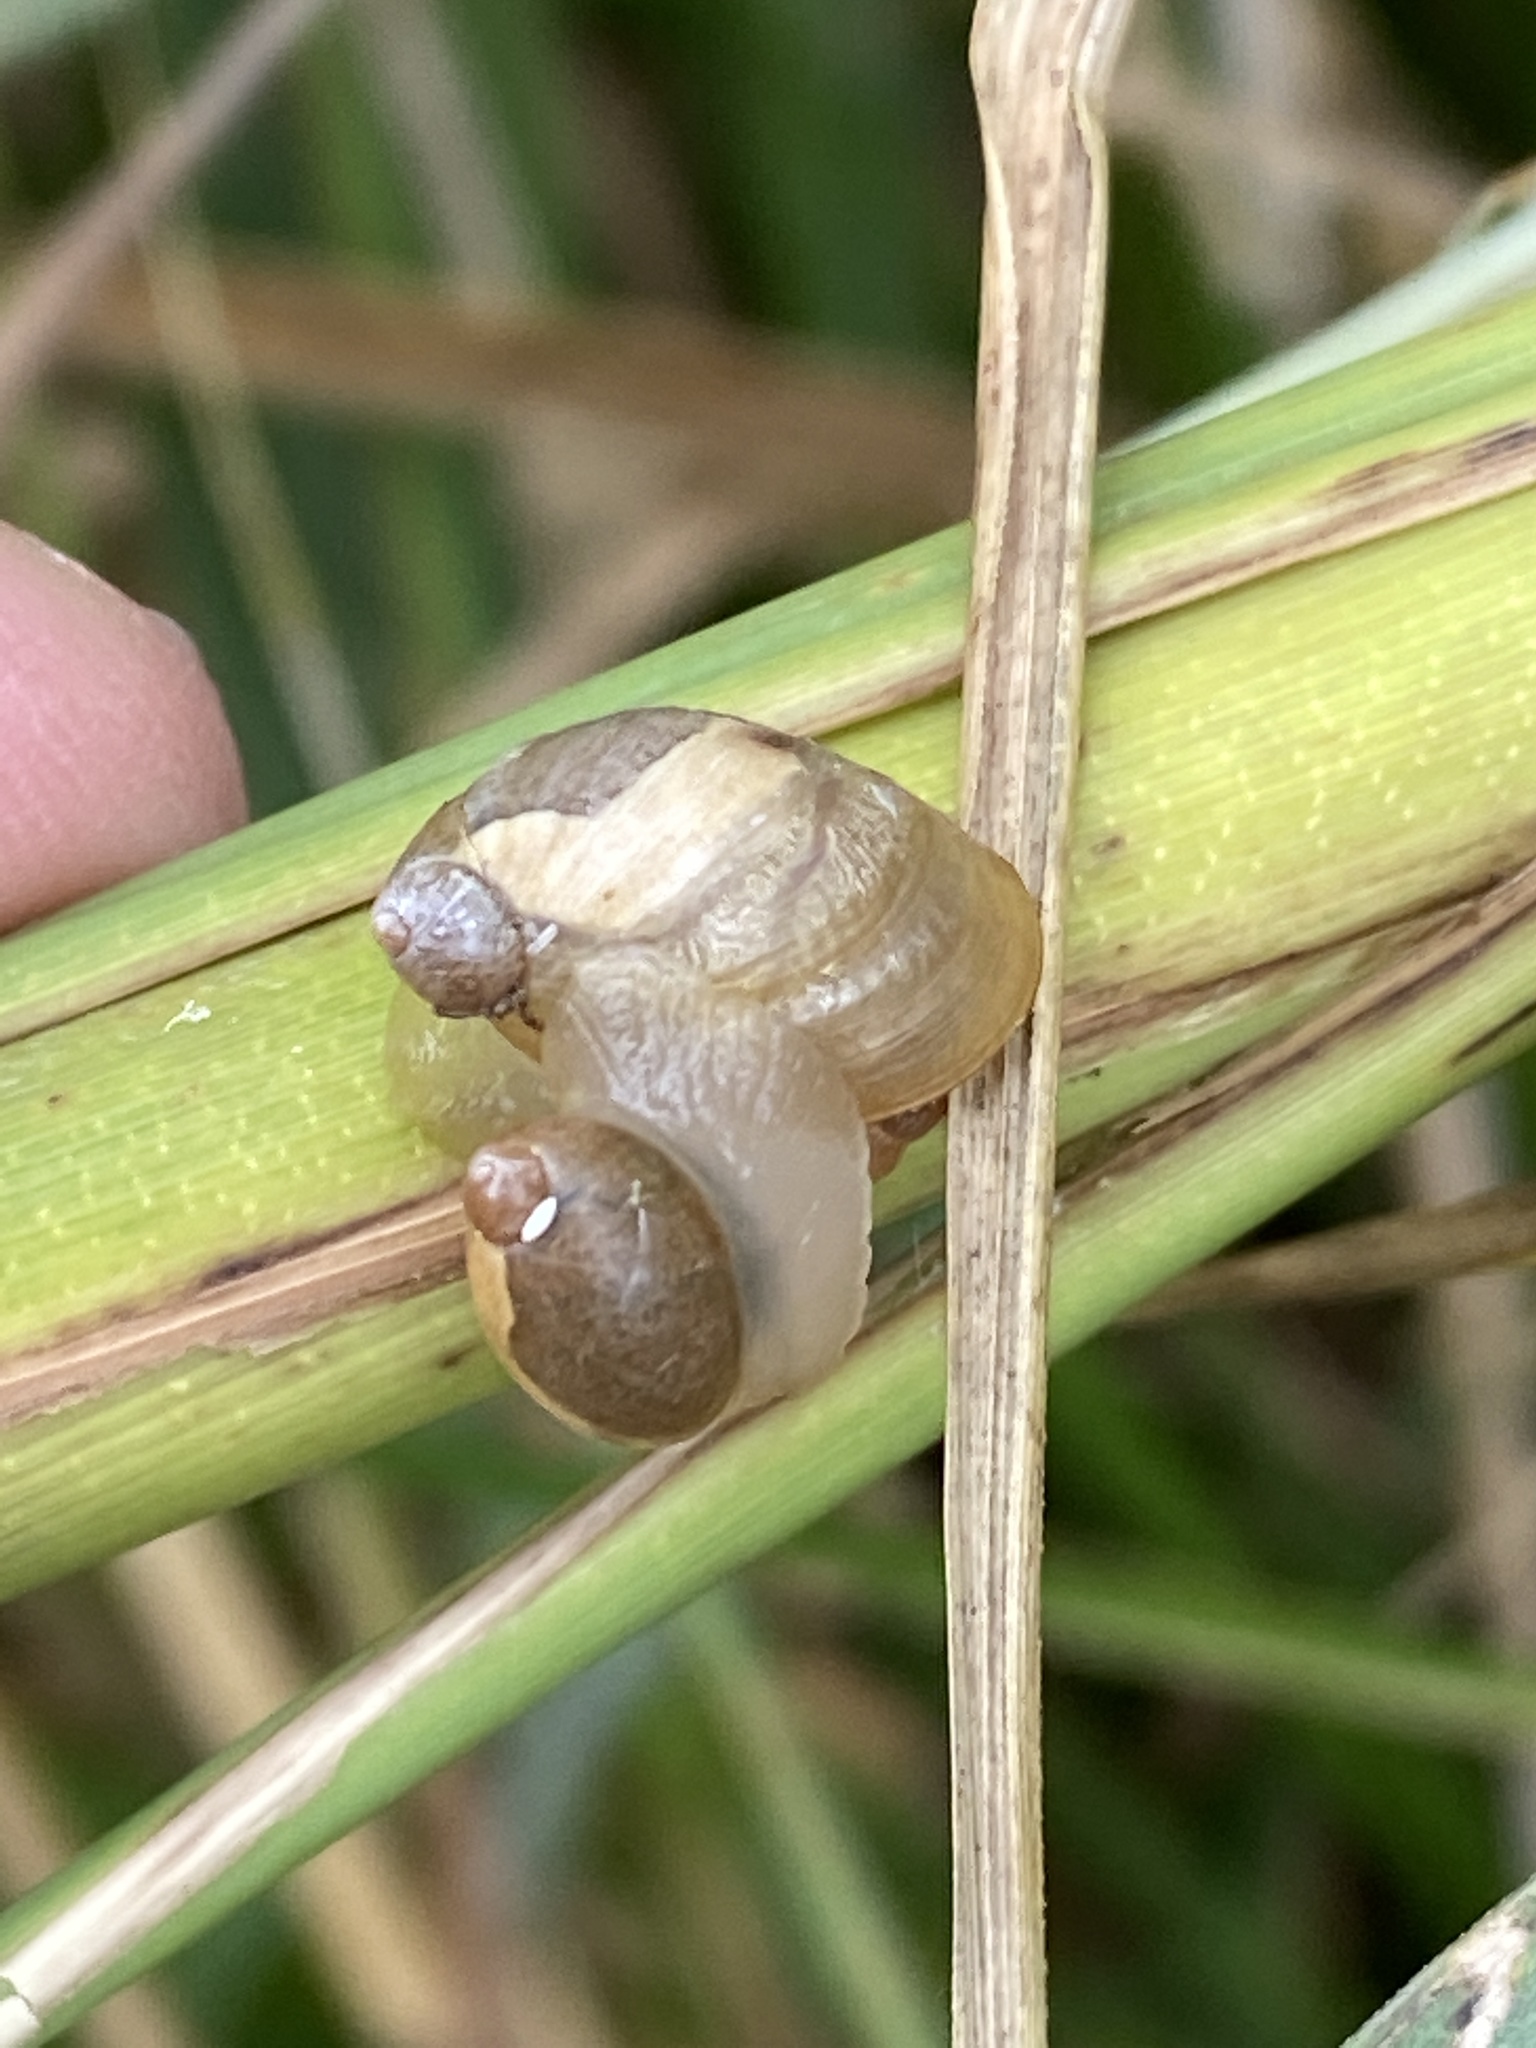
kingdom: Animalia
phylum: Mollusca
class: Gastropoda
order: Stylommatophora
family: Succineidae
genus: Succinea
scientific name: Succinea putris
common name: European ambersnail
